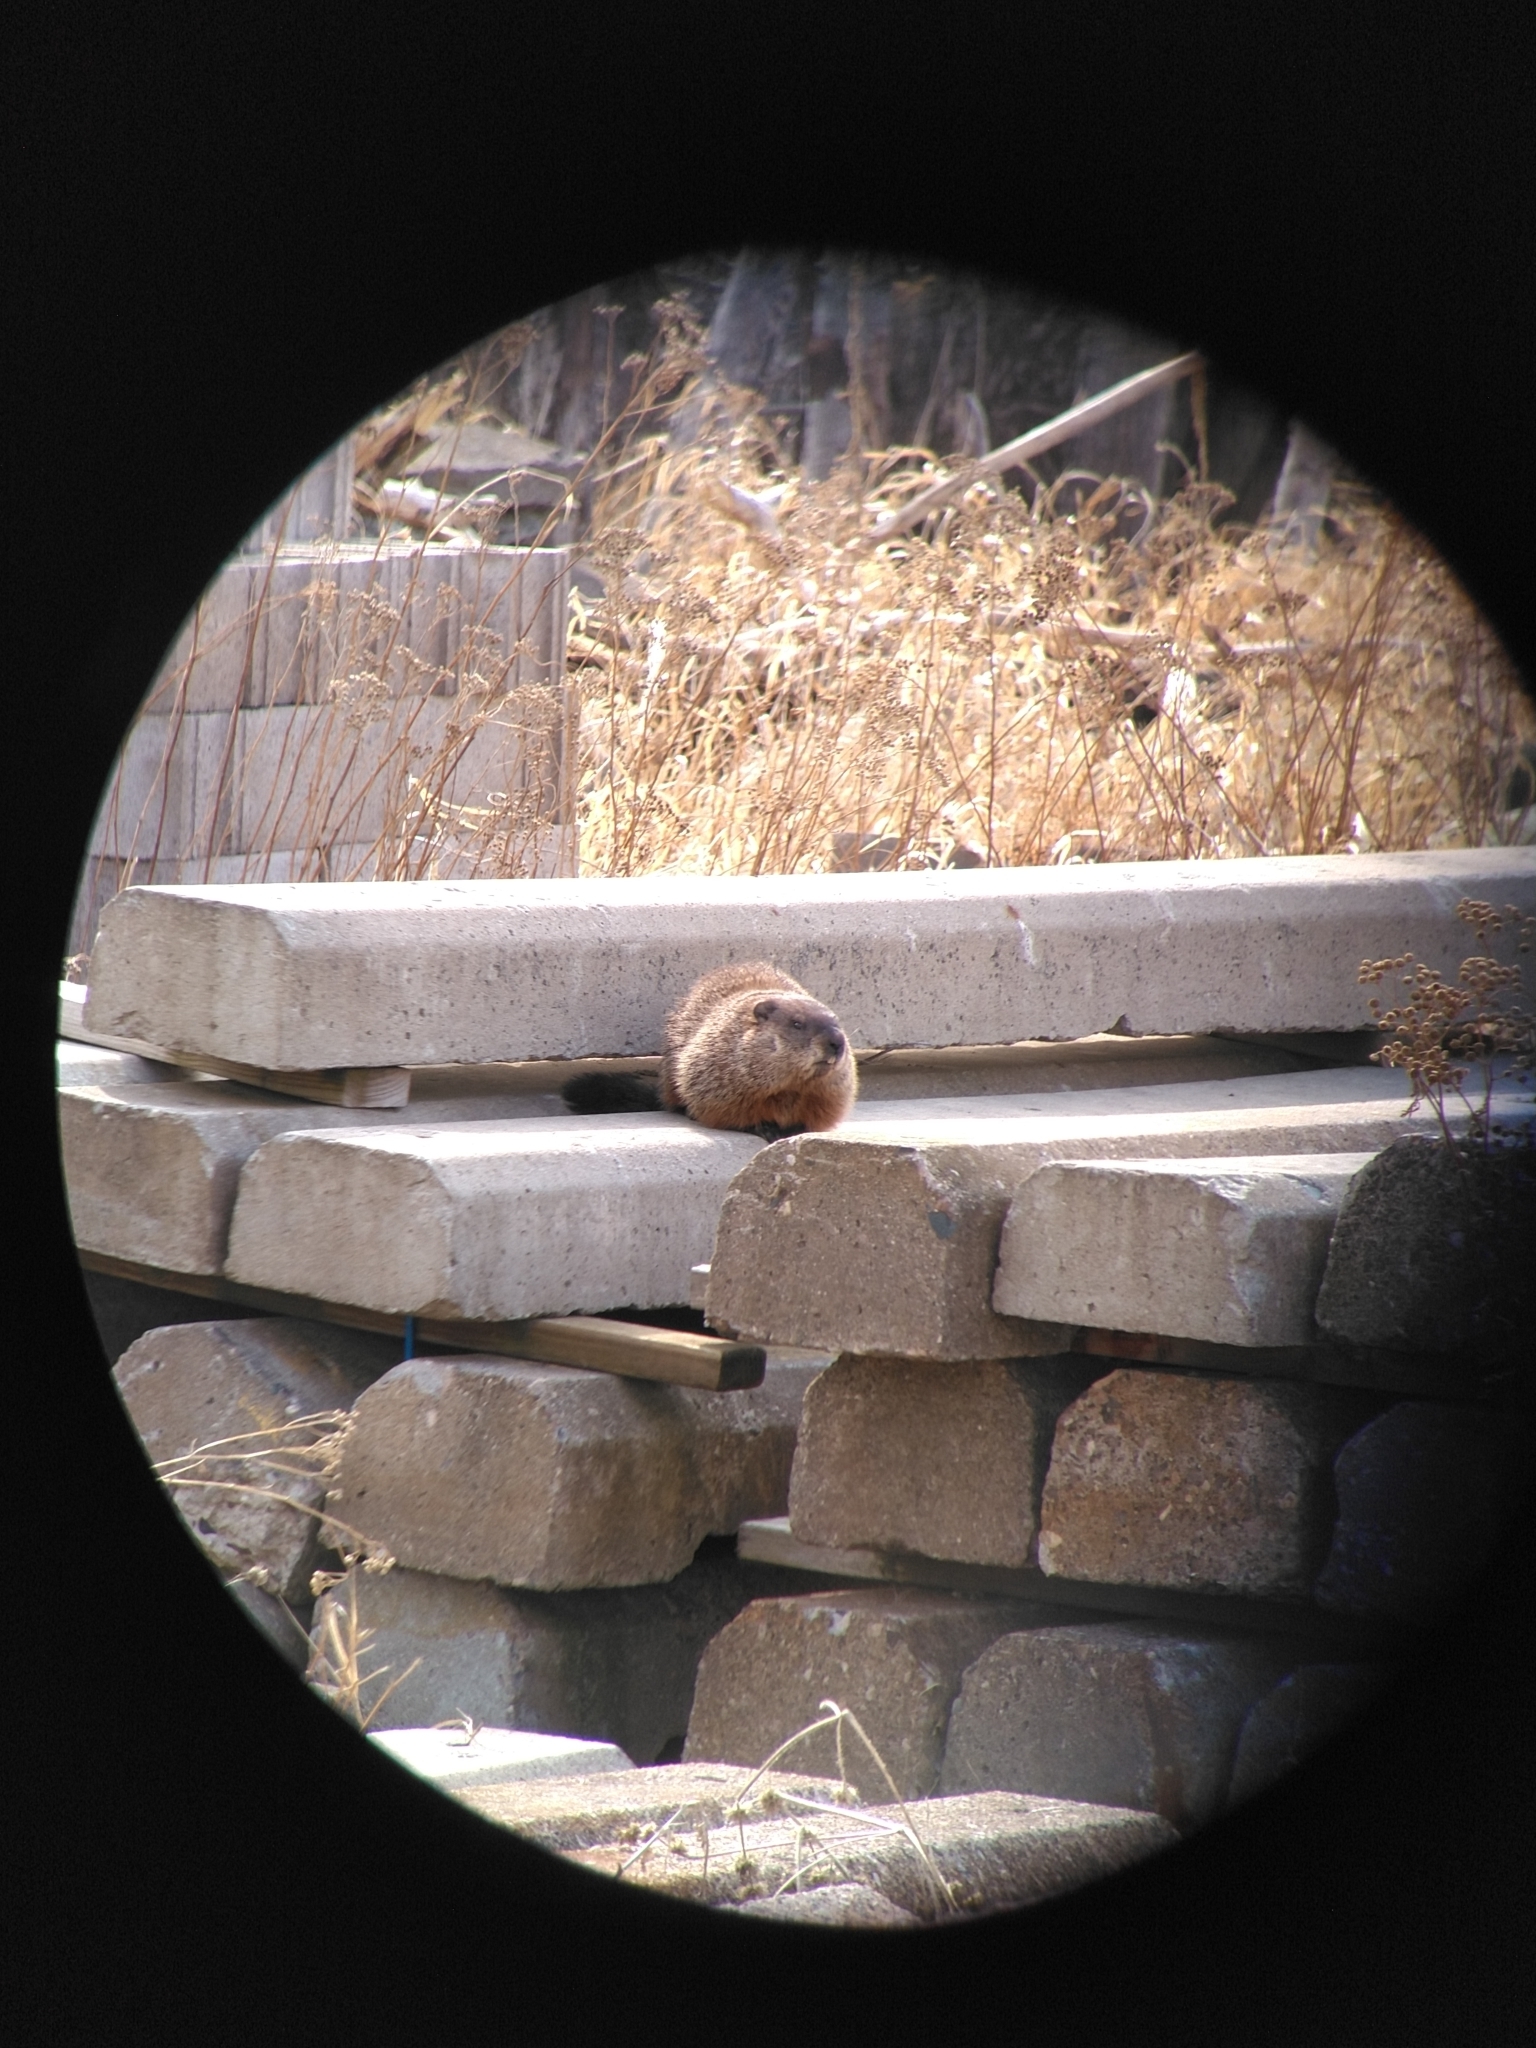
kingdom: Animalia
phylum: Chordata
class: Mammalia
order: Rodentia
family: Sciuridae
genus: Marmota
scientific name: Marmota monax
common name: Groundhog
